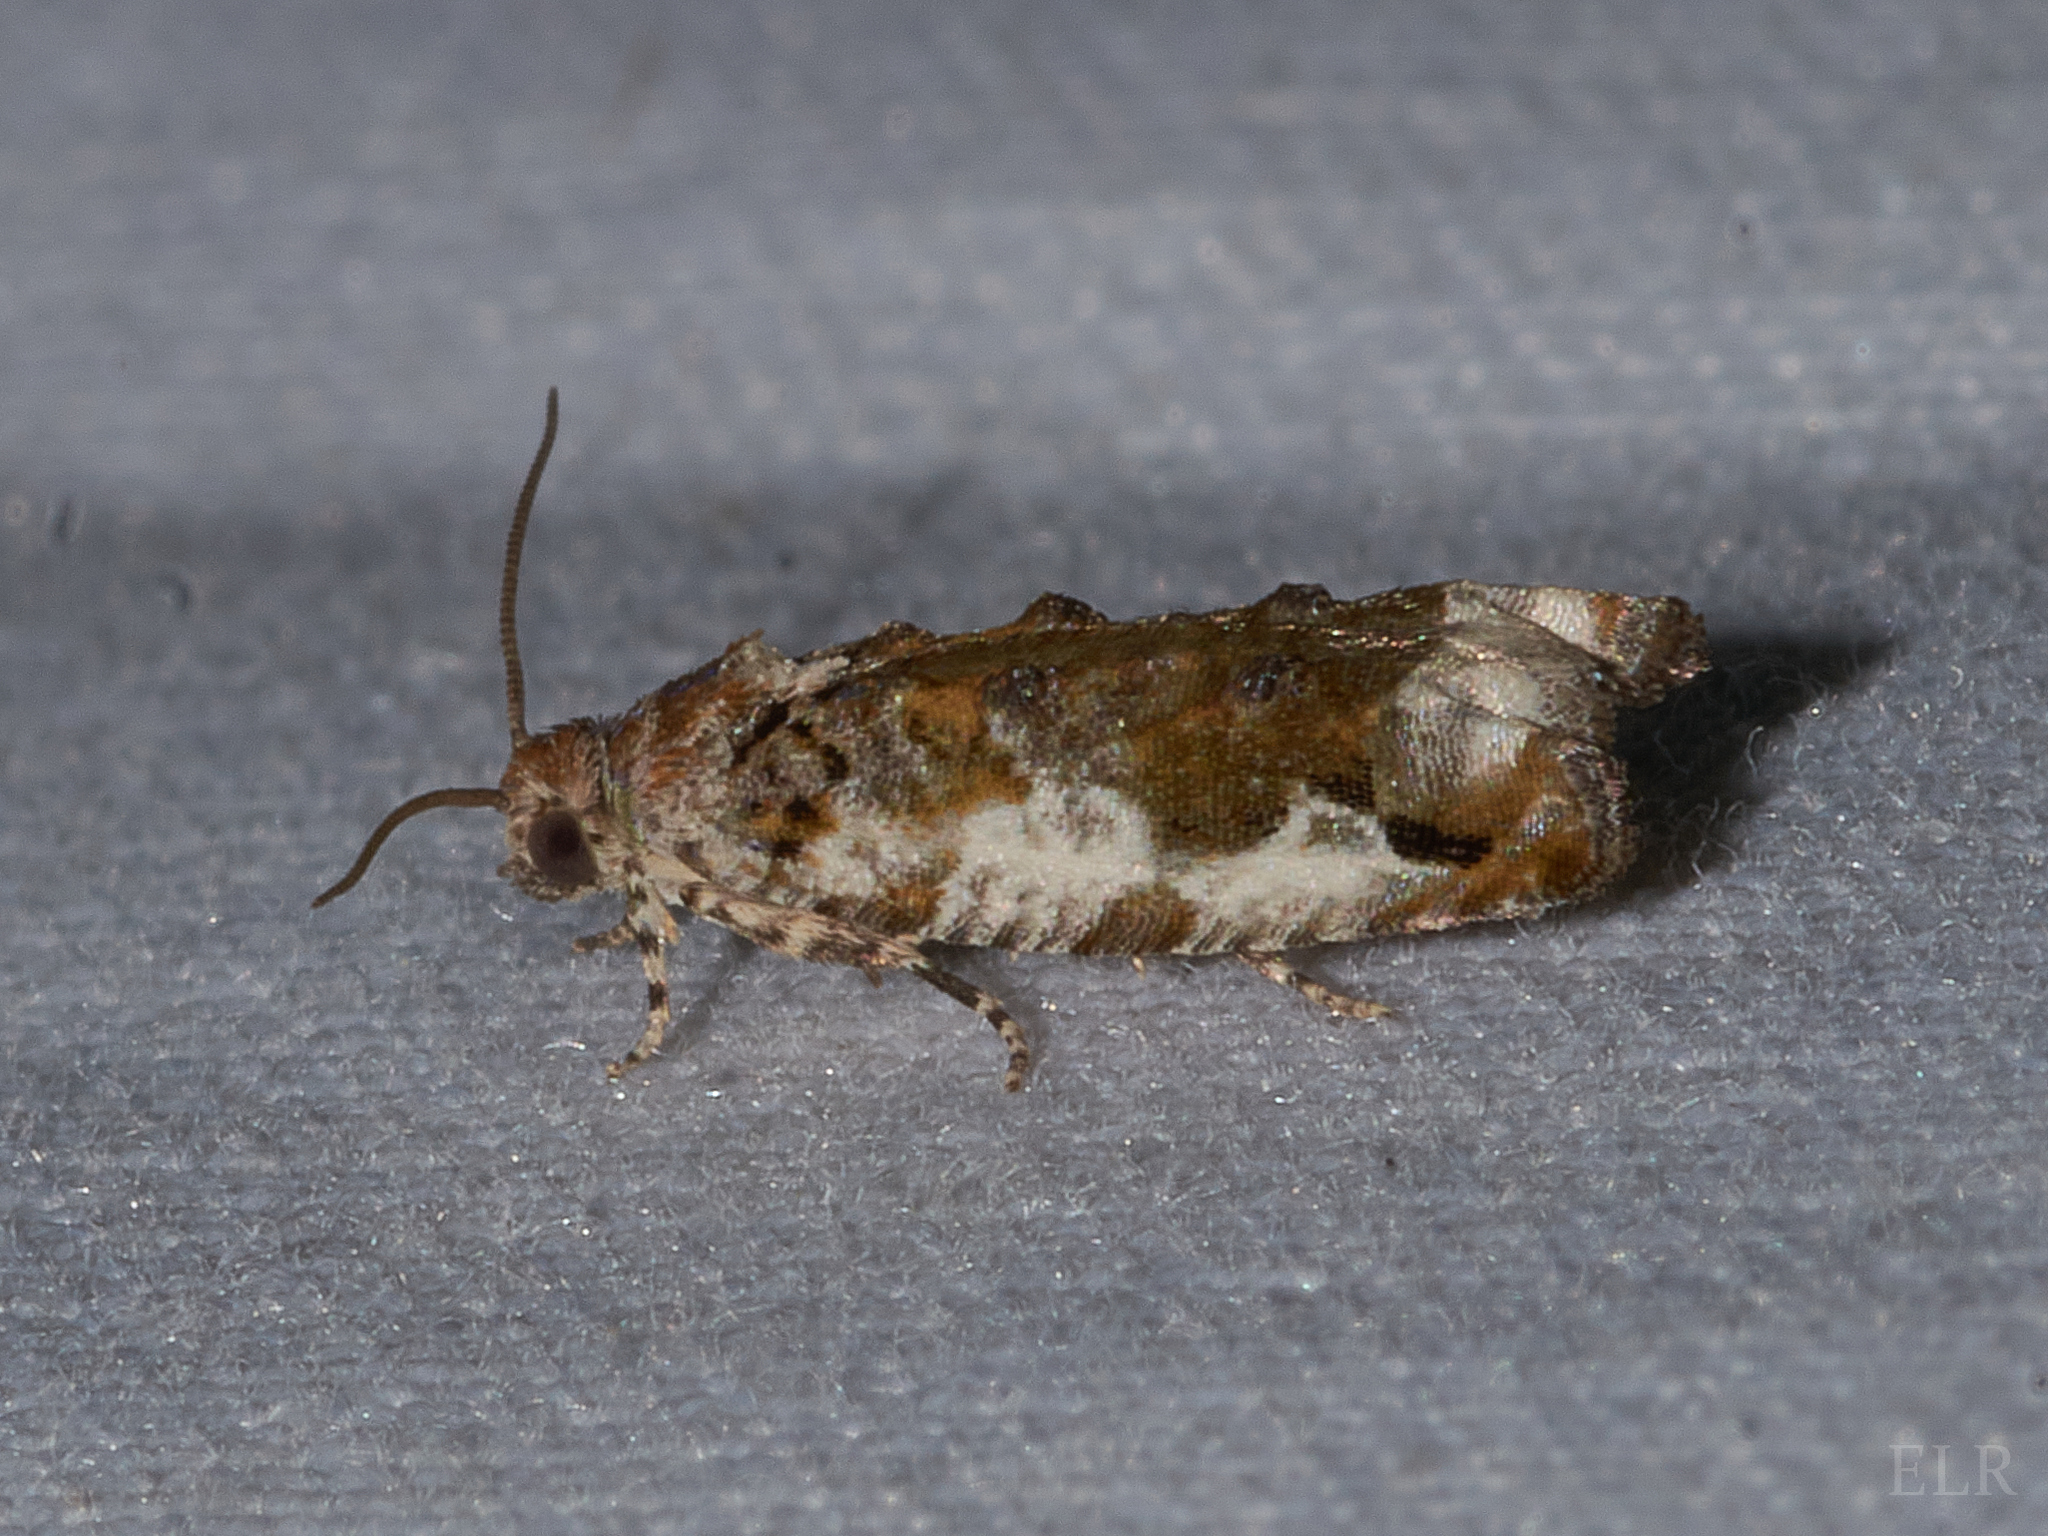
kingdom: Animalia
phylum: Arthropoda
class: Insecta
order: Lepidoptera
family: Tortricidae
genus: Proteoteras
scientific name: Proteoteras naracana
